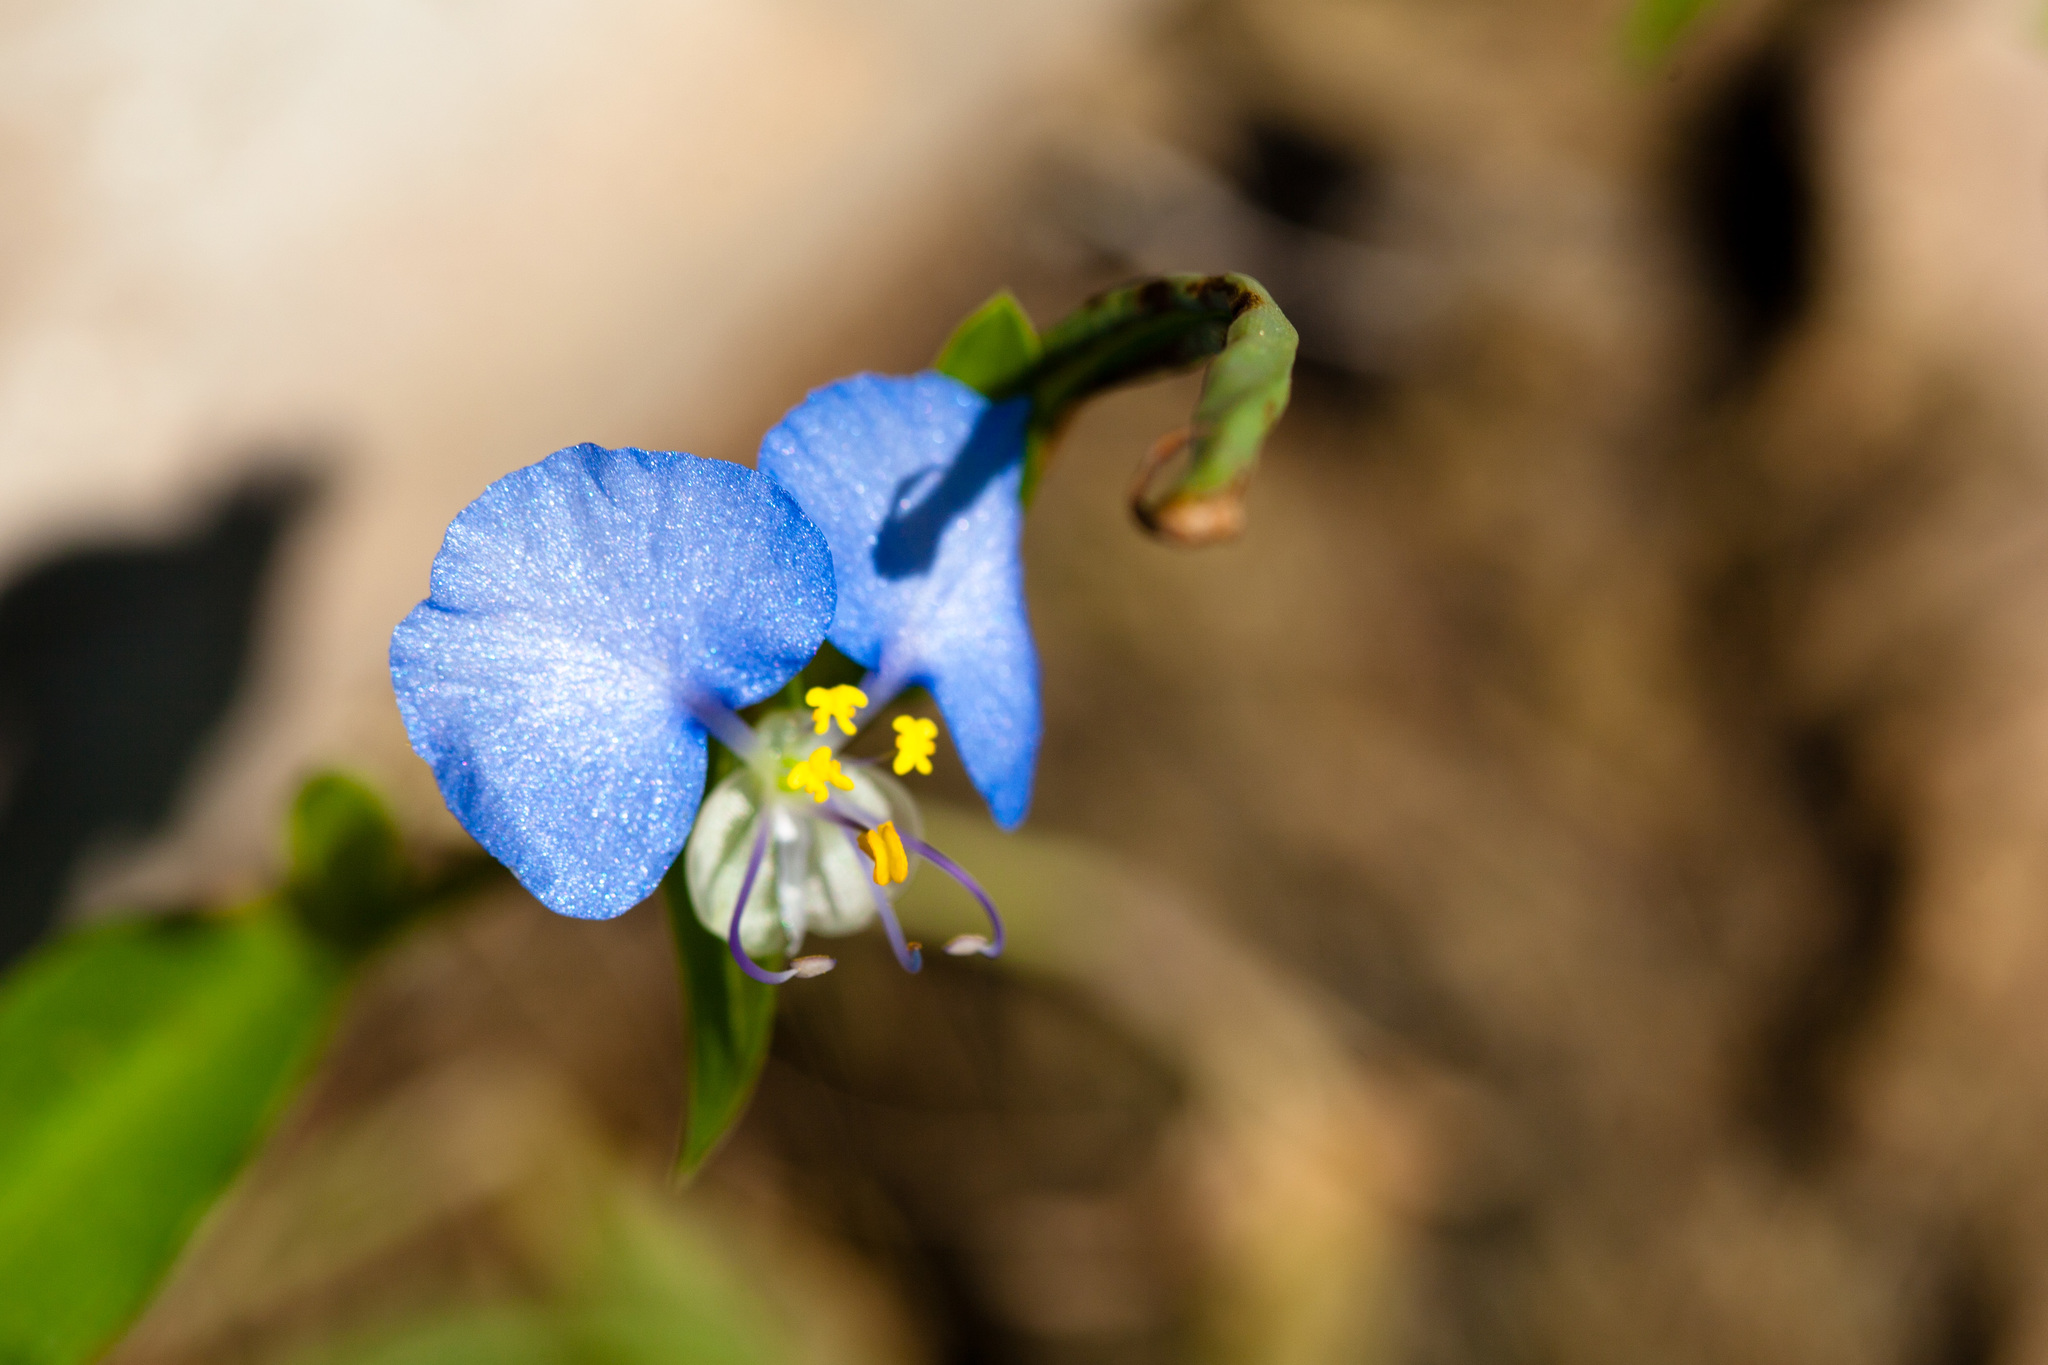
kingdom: Plantae
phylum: Tracheophyta
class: Liliopsida
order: Commelinales
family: Commelinaceae
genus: Commelina
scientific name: Commelina erecta
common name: Blousel blommetjie
